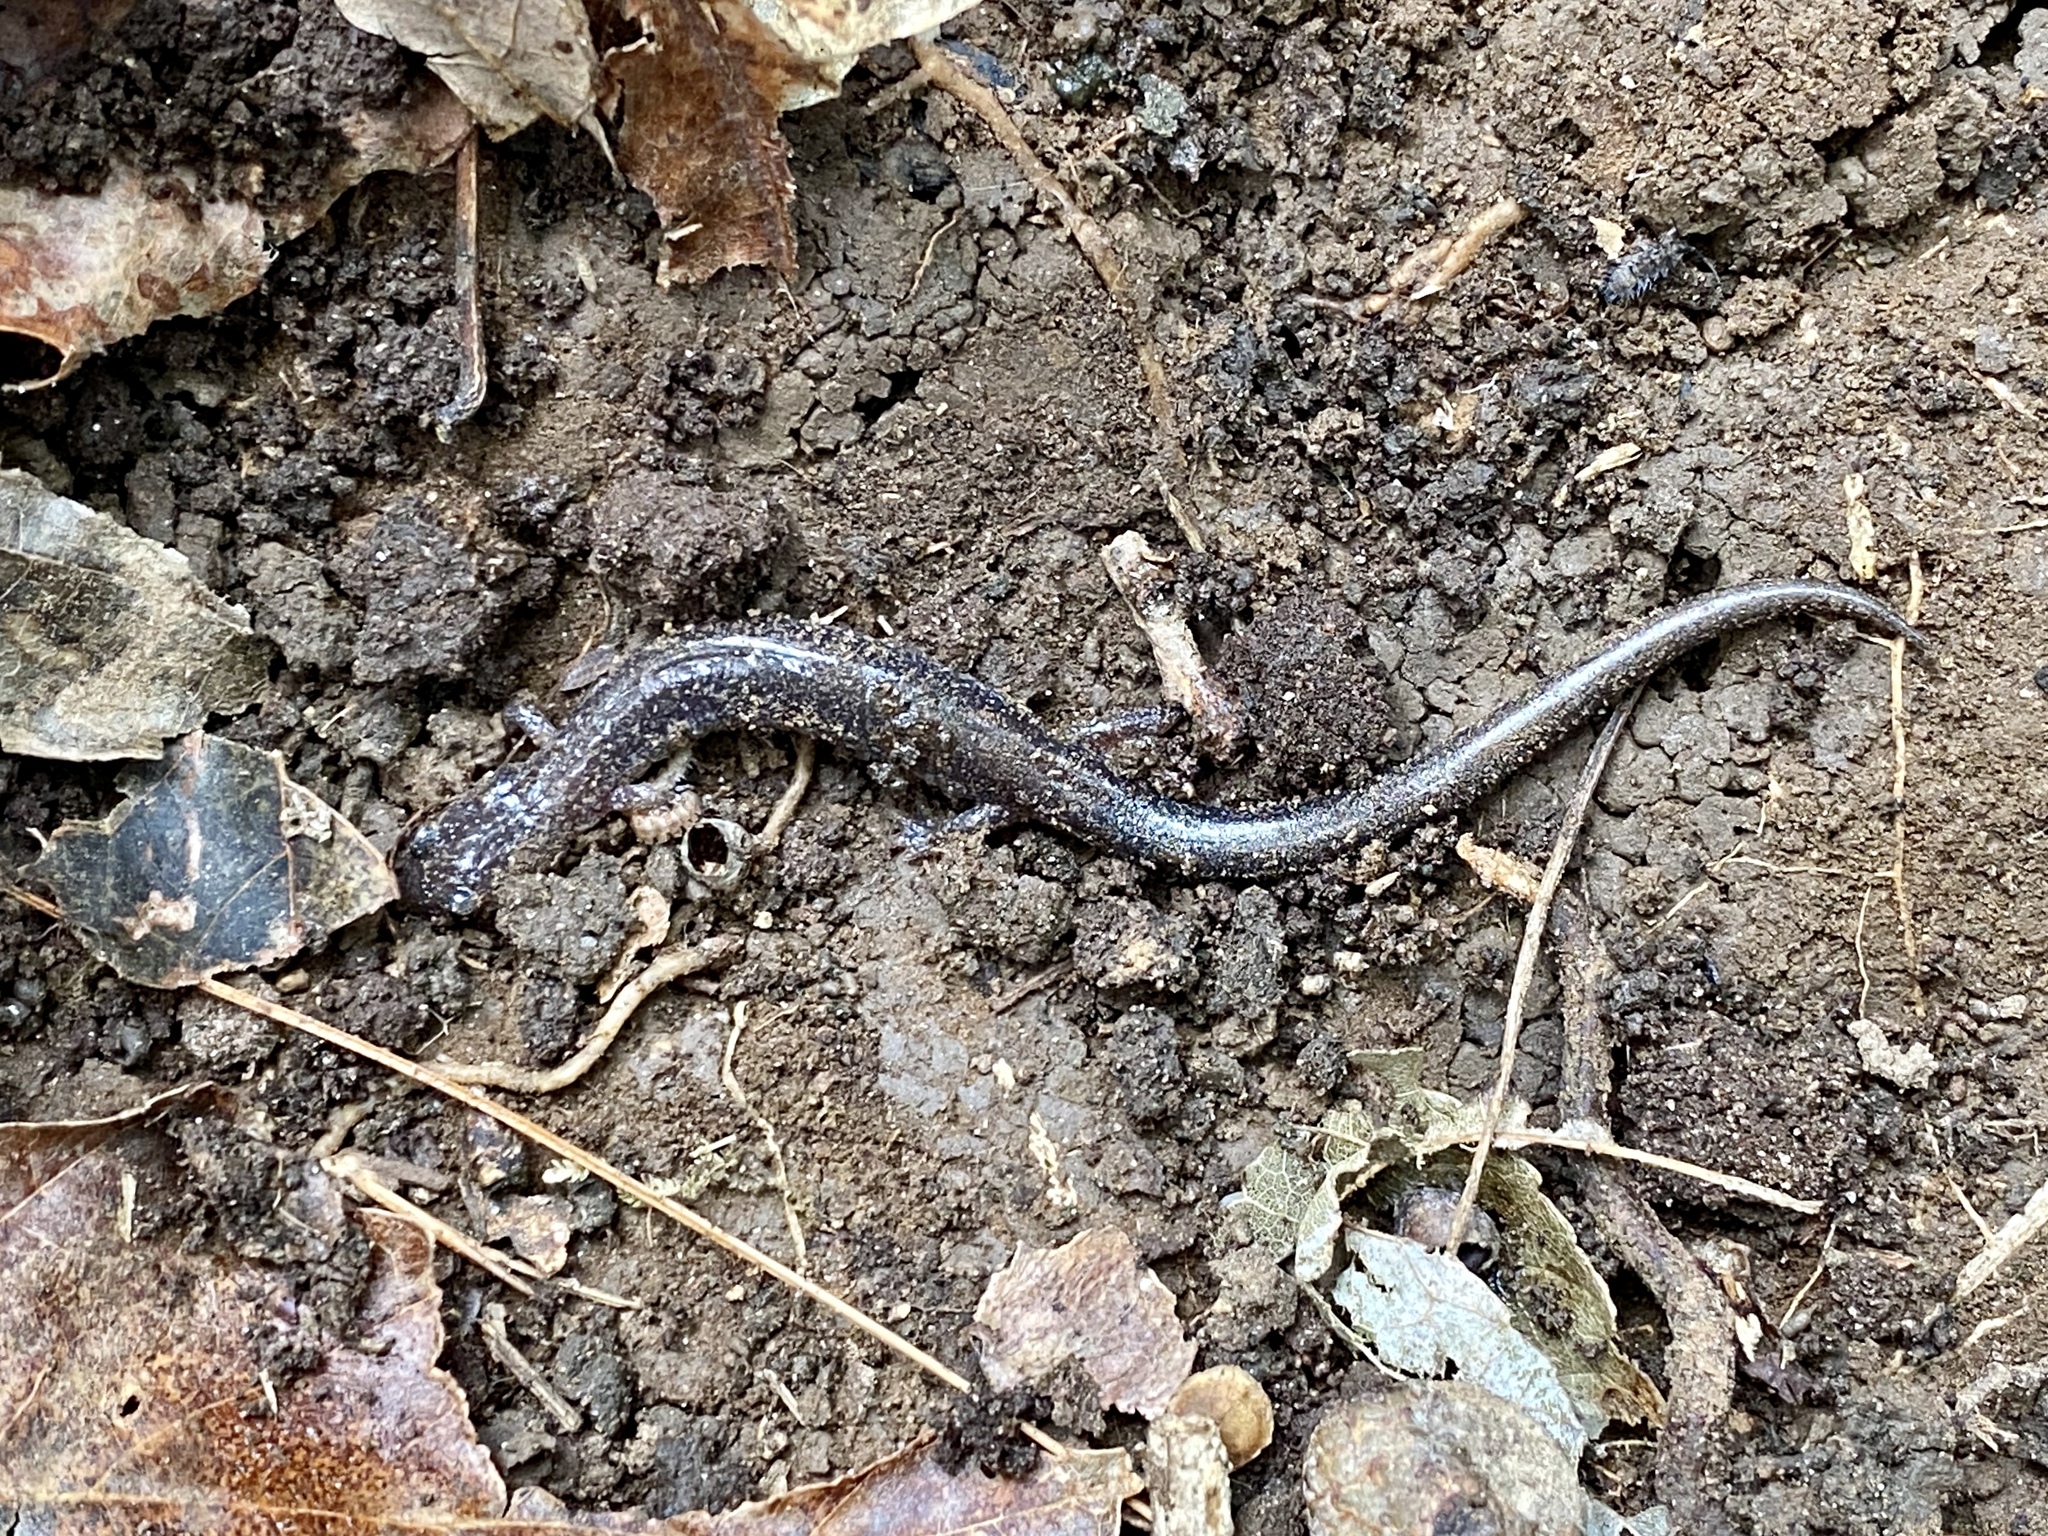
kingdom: Animalia
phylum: Chordata
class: Amphibia
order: Caudata
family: Plethodontidae
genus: Plethodon
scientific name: Plethodon cinereus
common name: Redback salamander
